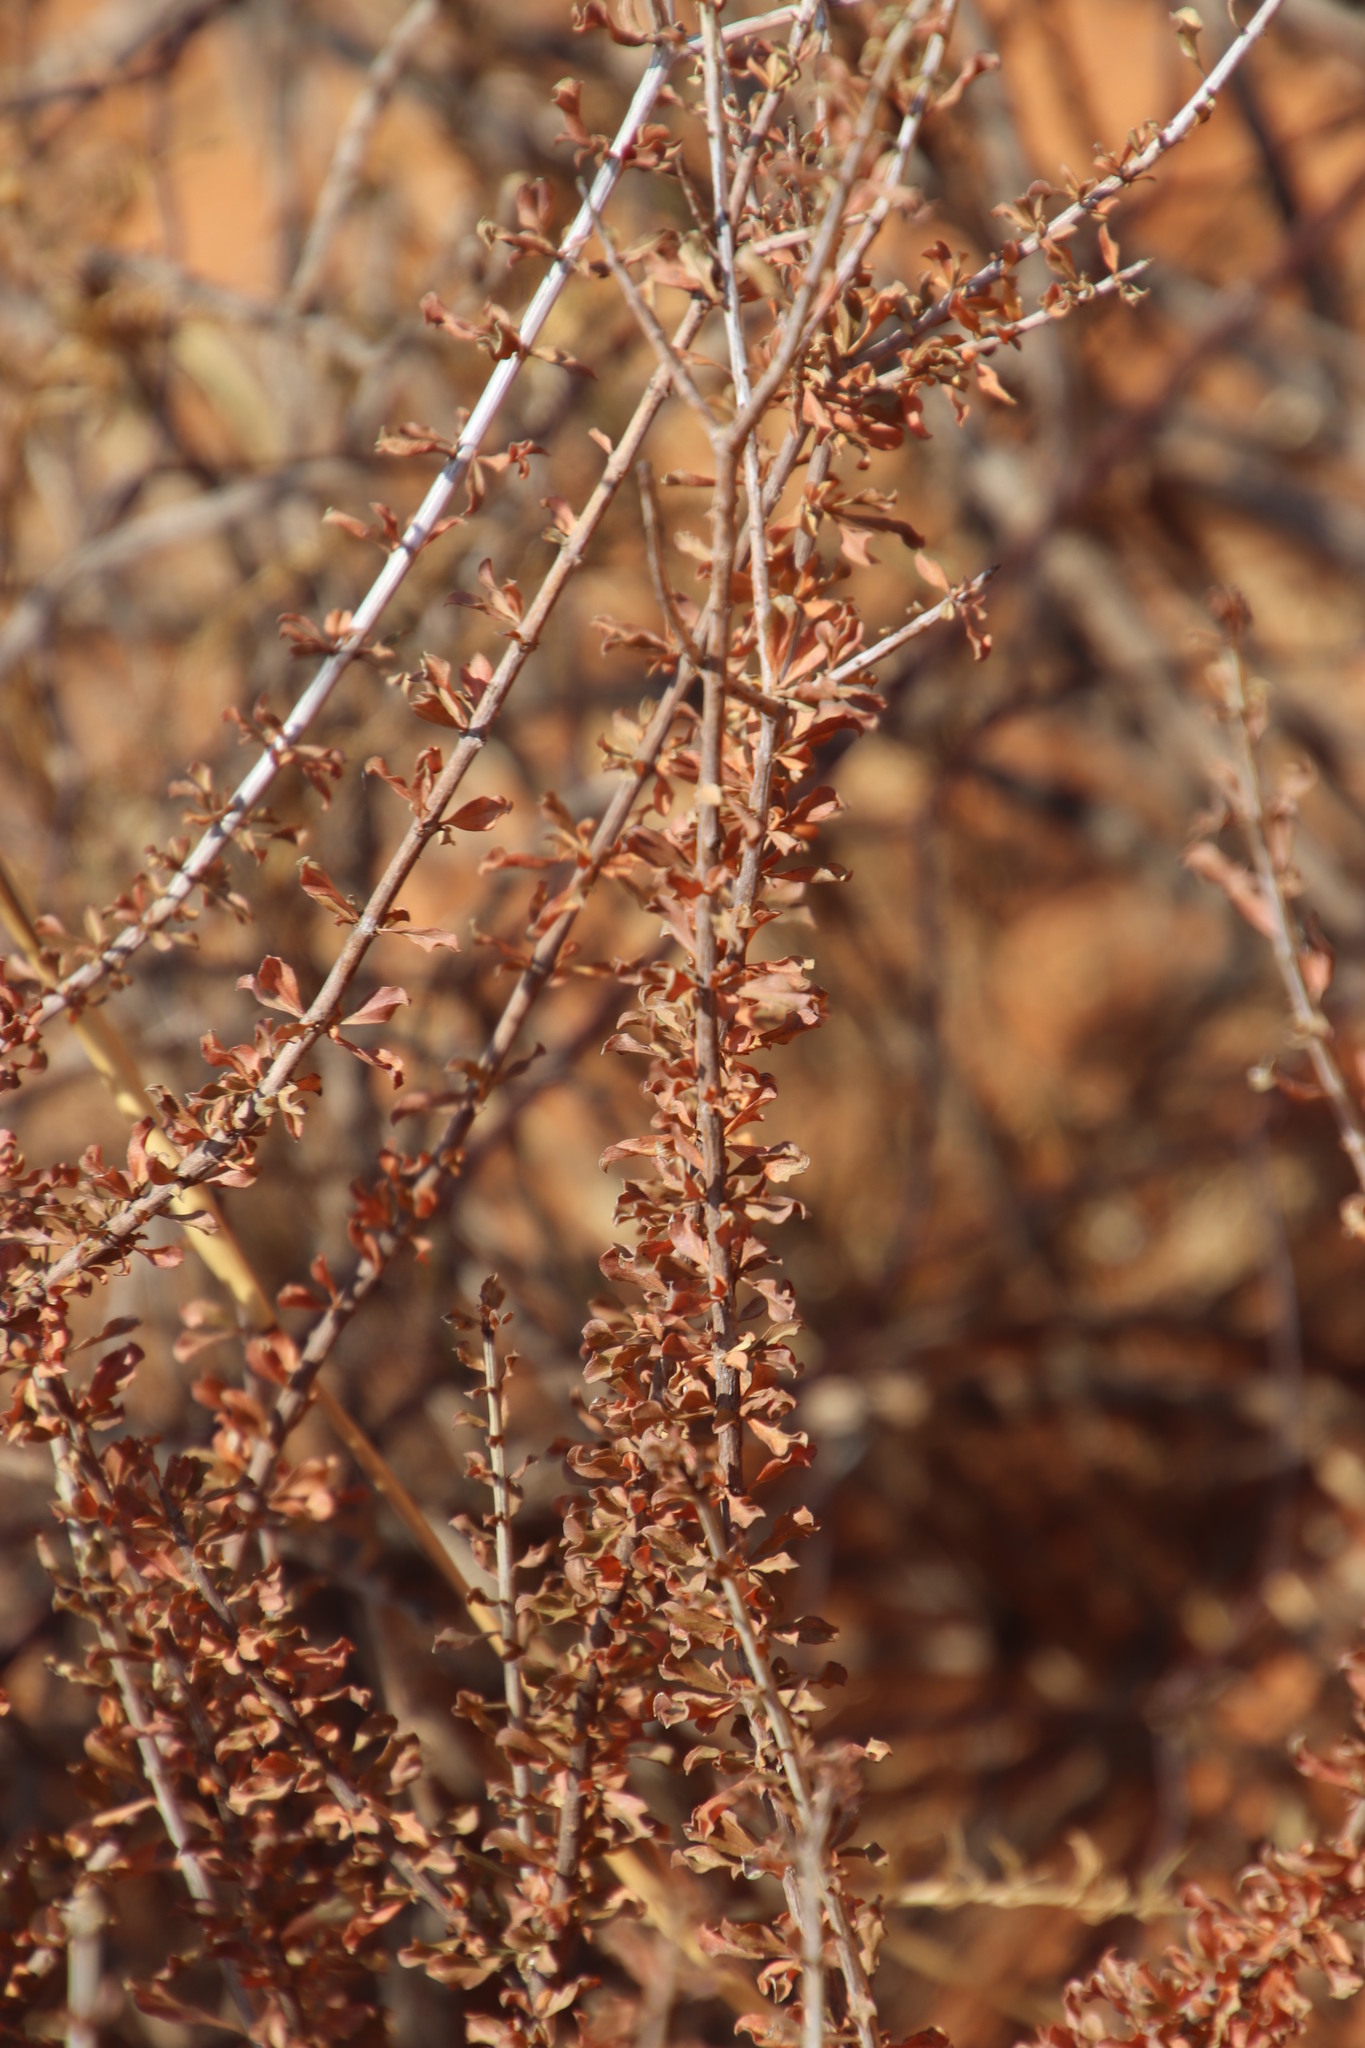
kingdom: Plantae
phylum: Tracheophyta
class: Magnoliopsida
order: Lamiales
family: Bignoniaceae
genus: Rhigozum
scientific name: Rhigozum trichotomum
